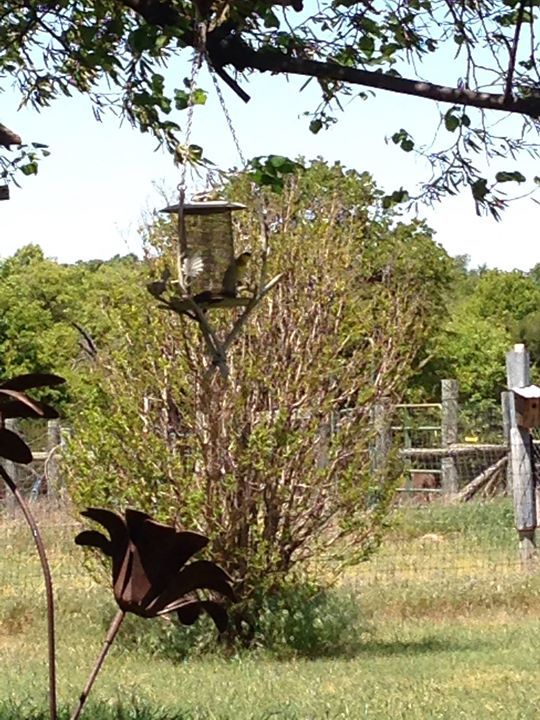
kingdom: Animalia
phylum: Chordata
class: Aves
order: Passeriformes
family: Fringillidae
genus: Spinus
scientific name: Spinus tristis
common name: American goldfinch
